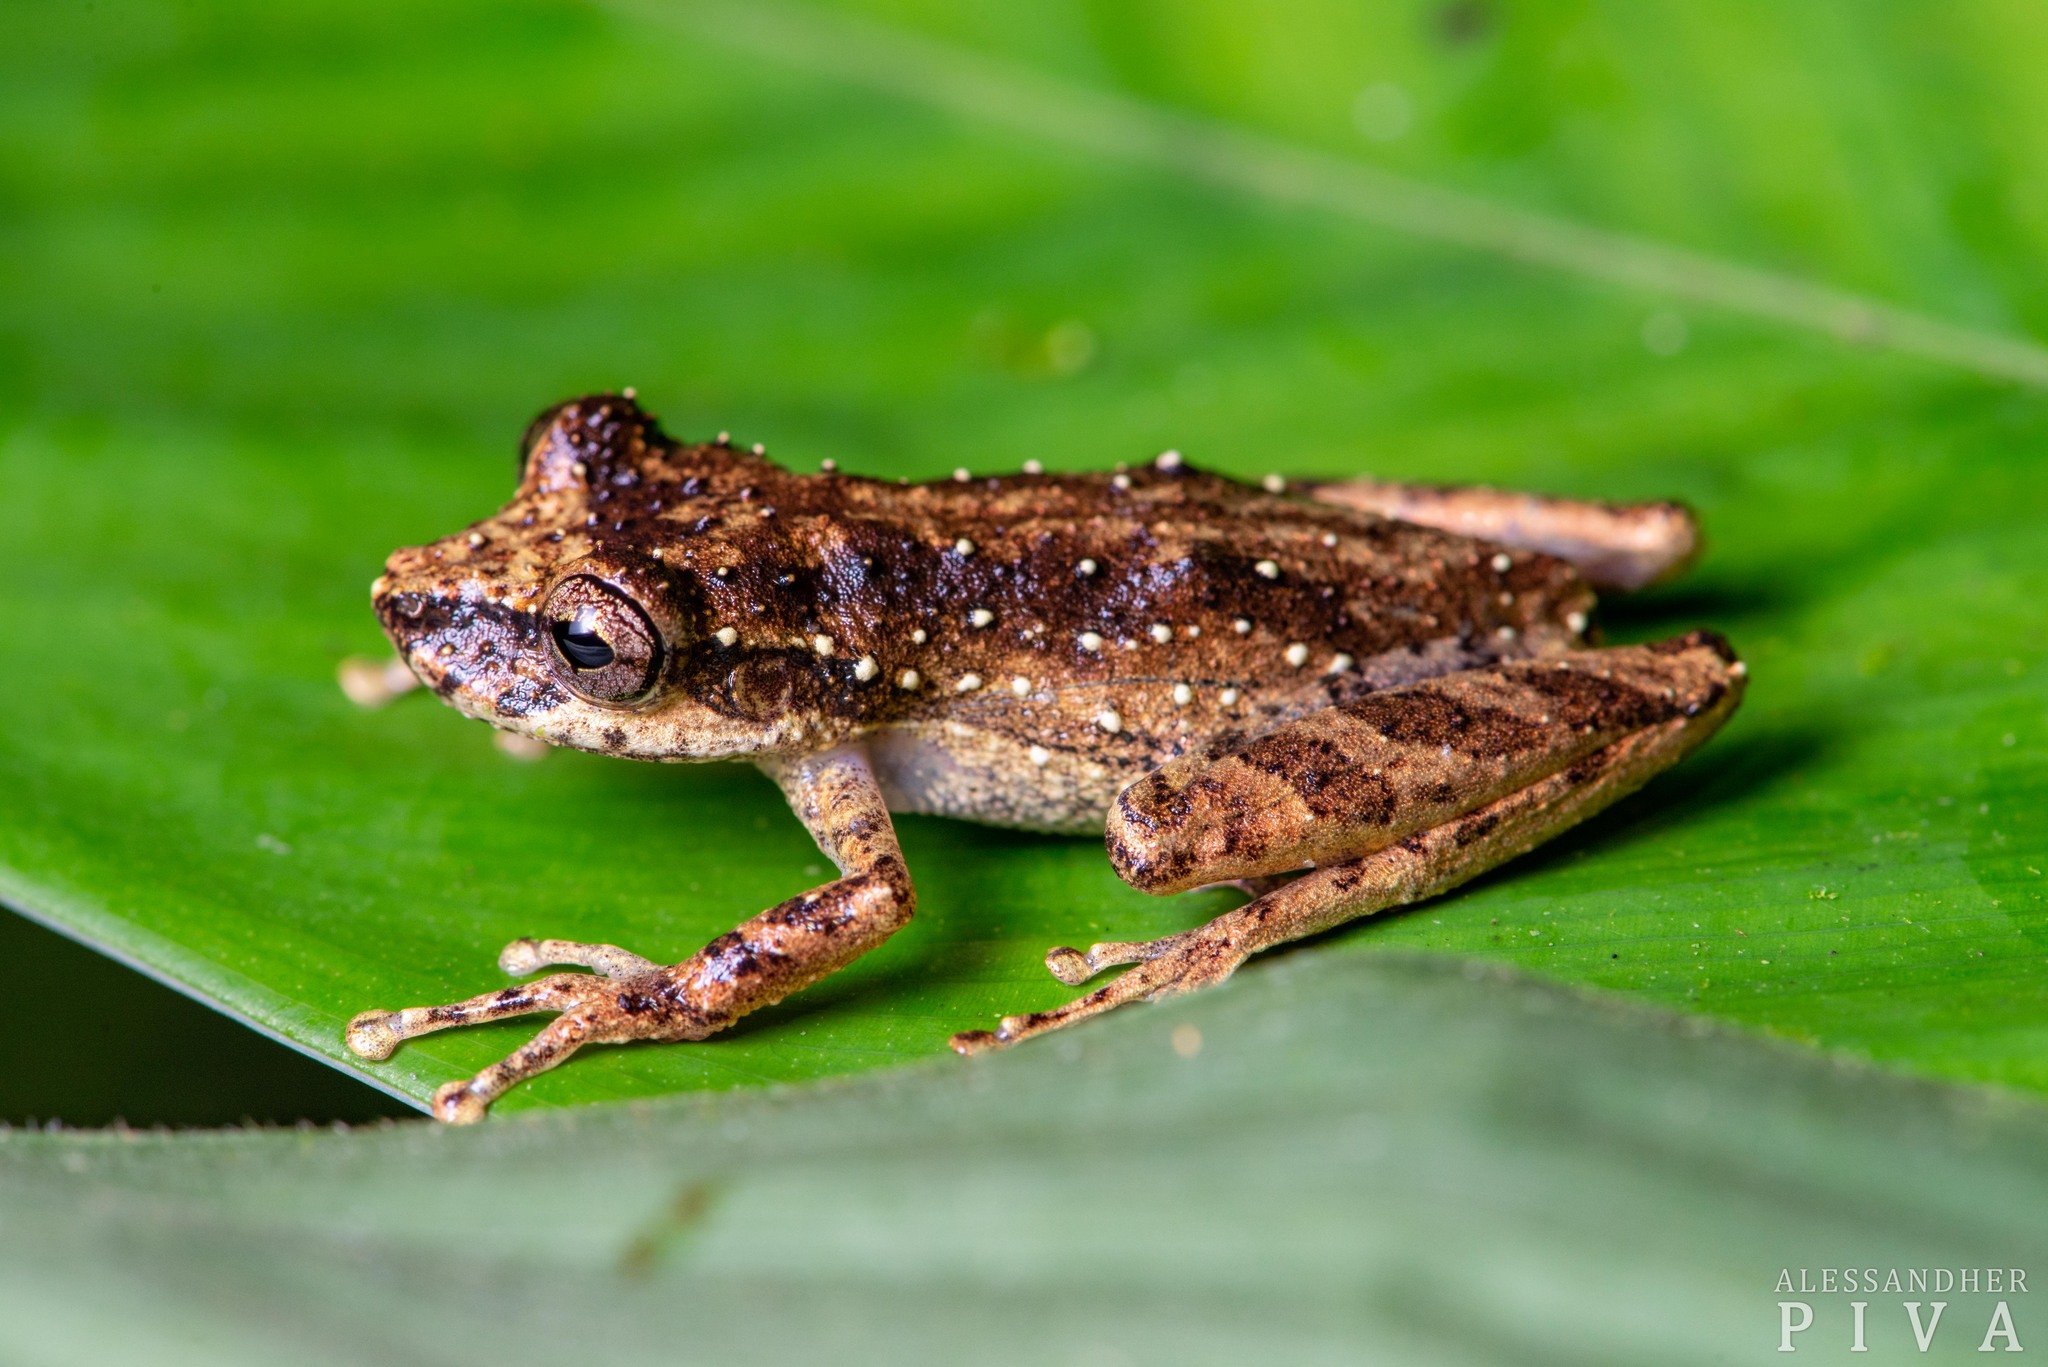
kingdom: Animalia
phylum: Chordata
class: Amphibia
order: Anura
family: Hylidae
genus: Ololygon
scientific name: Ololygon rizibilis
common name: Santo andre snouted treefrog
